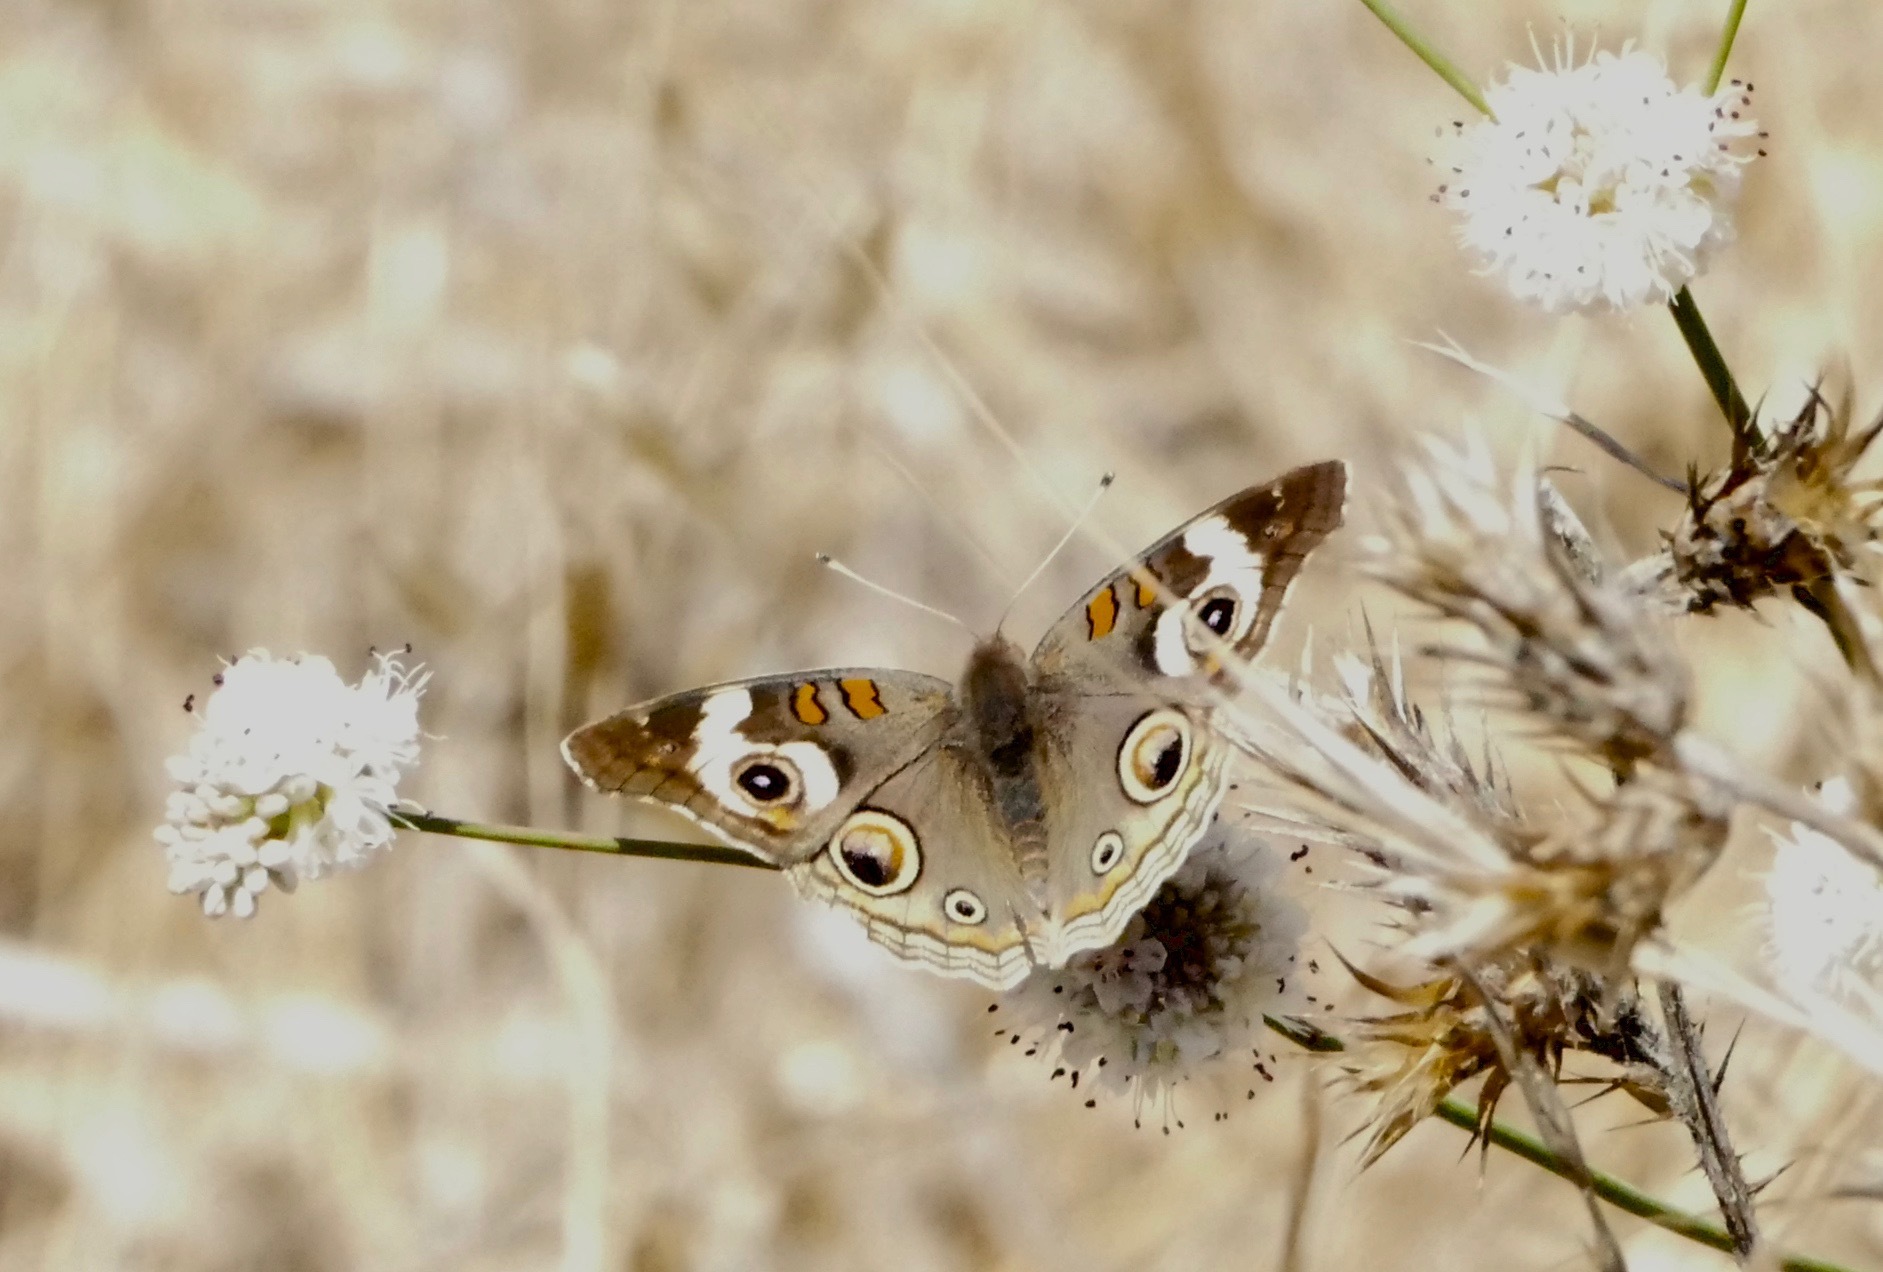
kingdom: Animalia
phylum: Arthropoda
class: Insecta
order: Lepidoptera
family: Nymphalidae
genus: Junonia
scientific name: Junonia grisea
